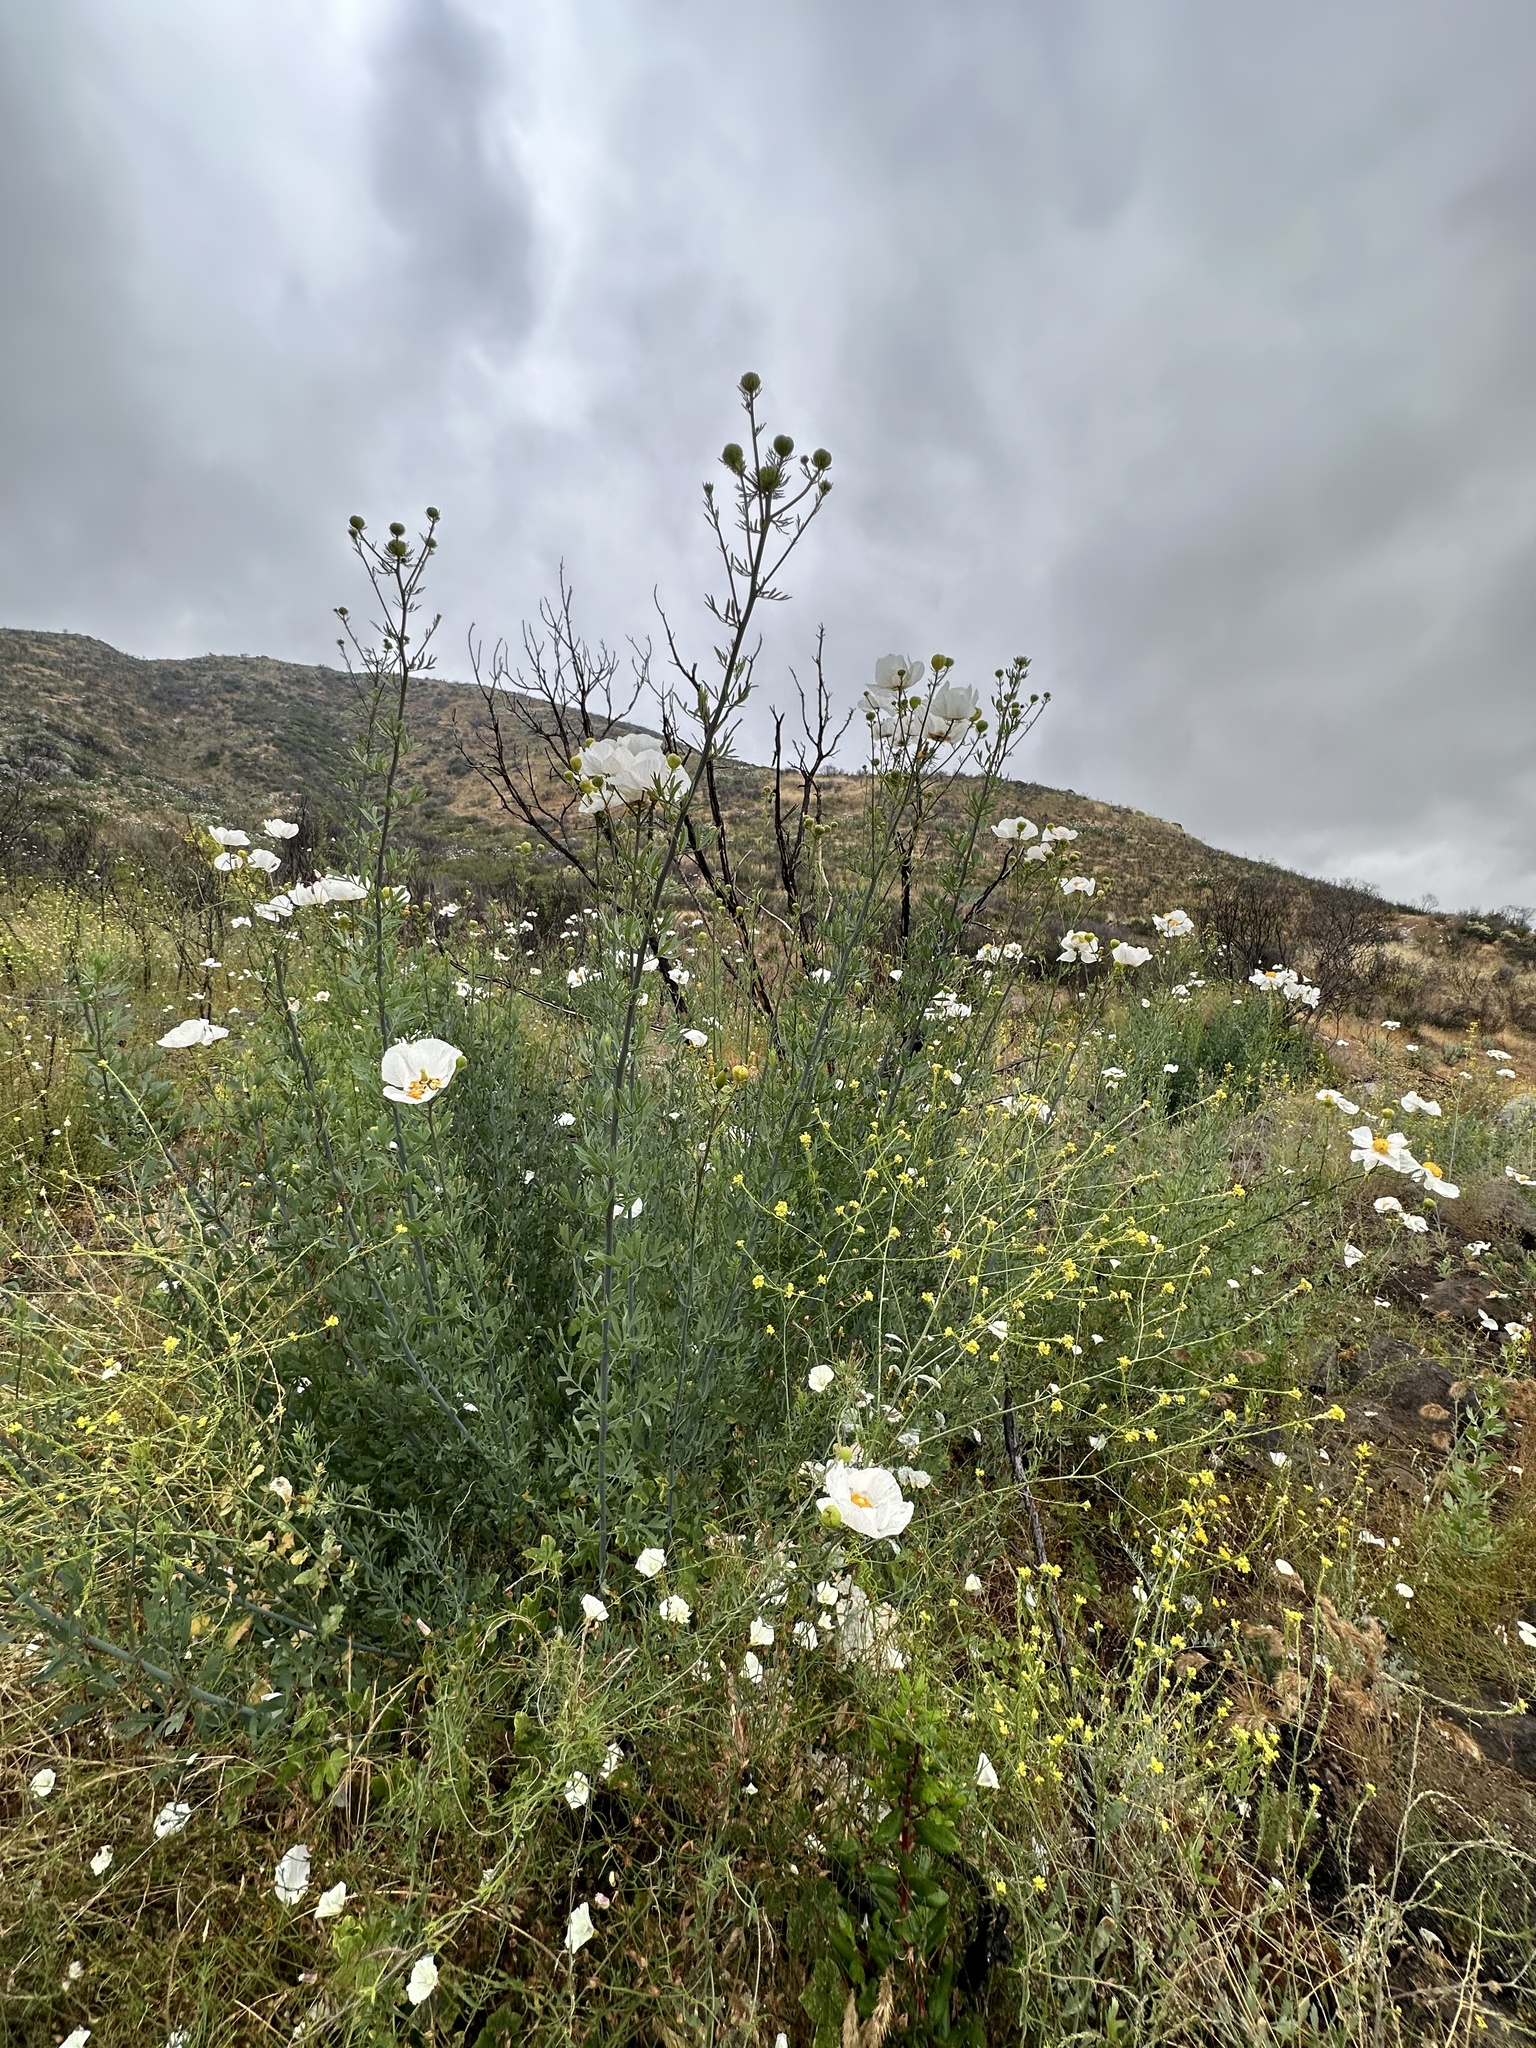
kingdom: Plantae
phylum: Tracheophyta
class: Magnoliopsida
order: Ranunculales
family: Papaveraceae
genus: Romneya
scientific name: Romneya trichocalyx
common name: Hairy matilija-poppy
